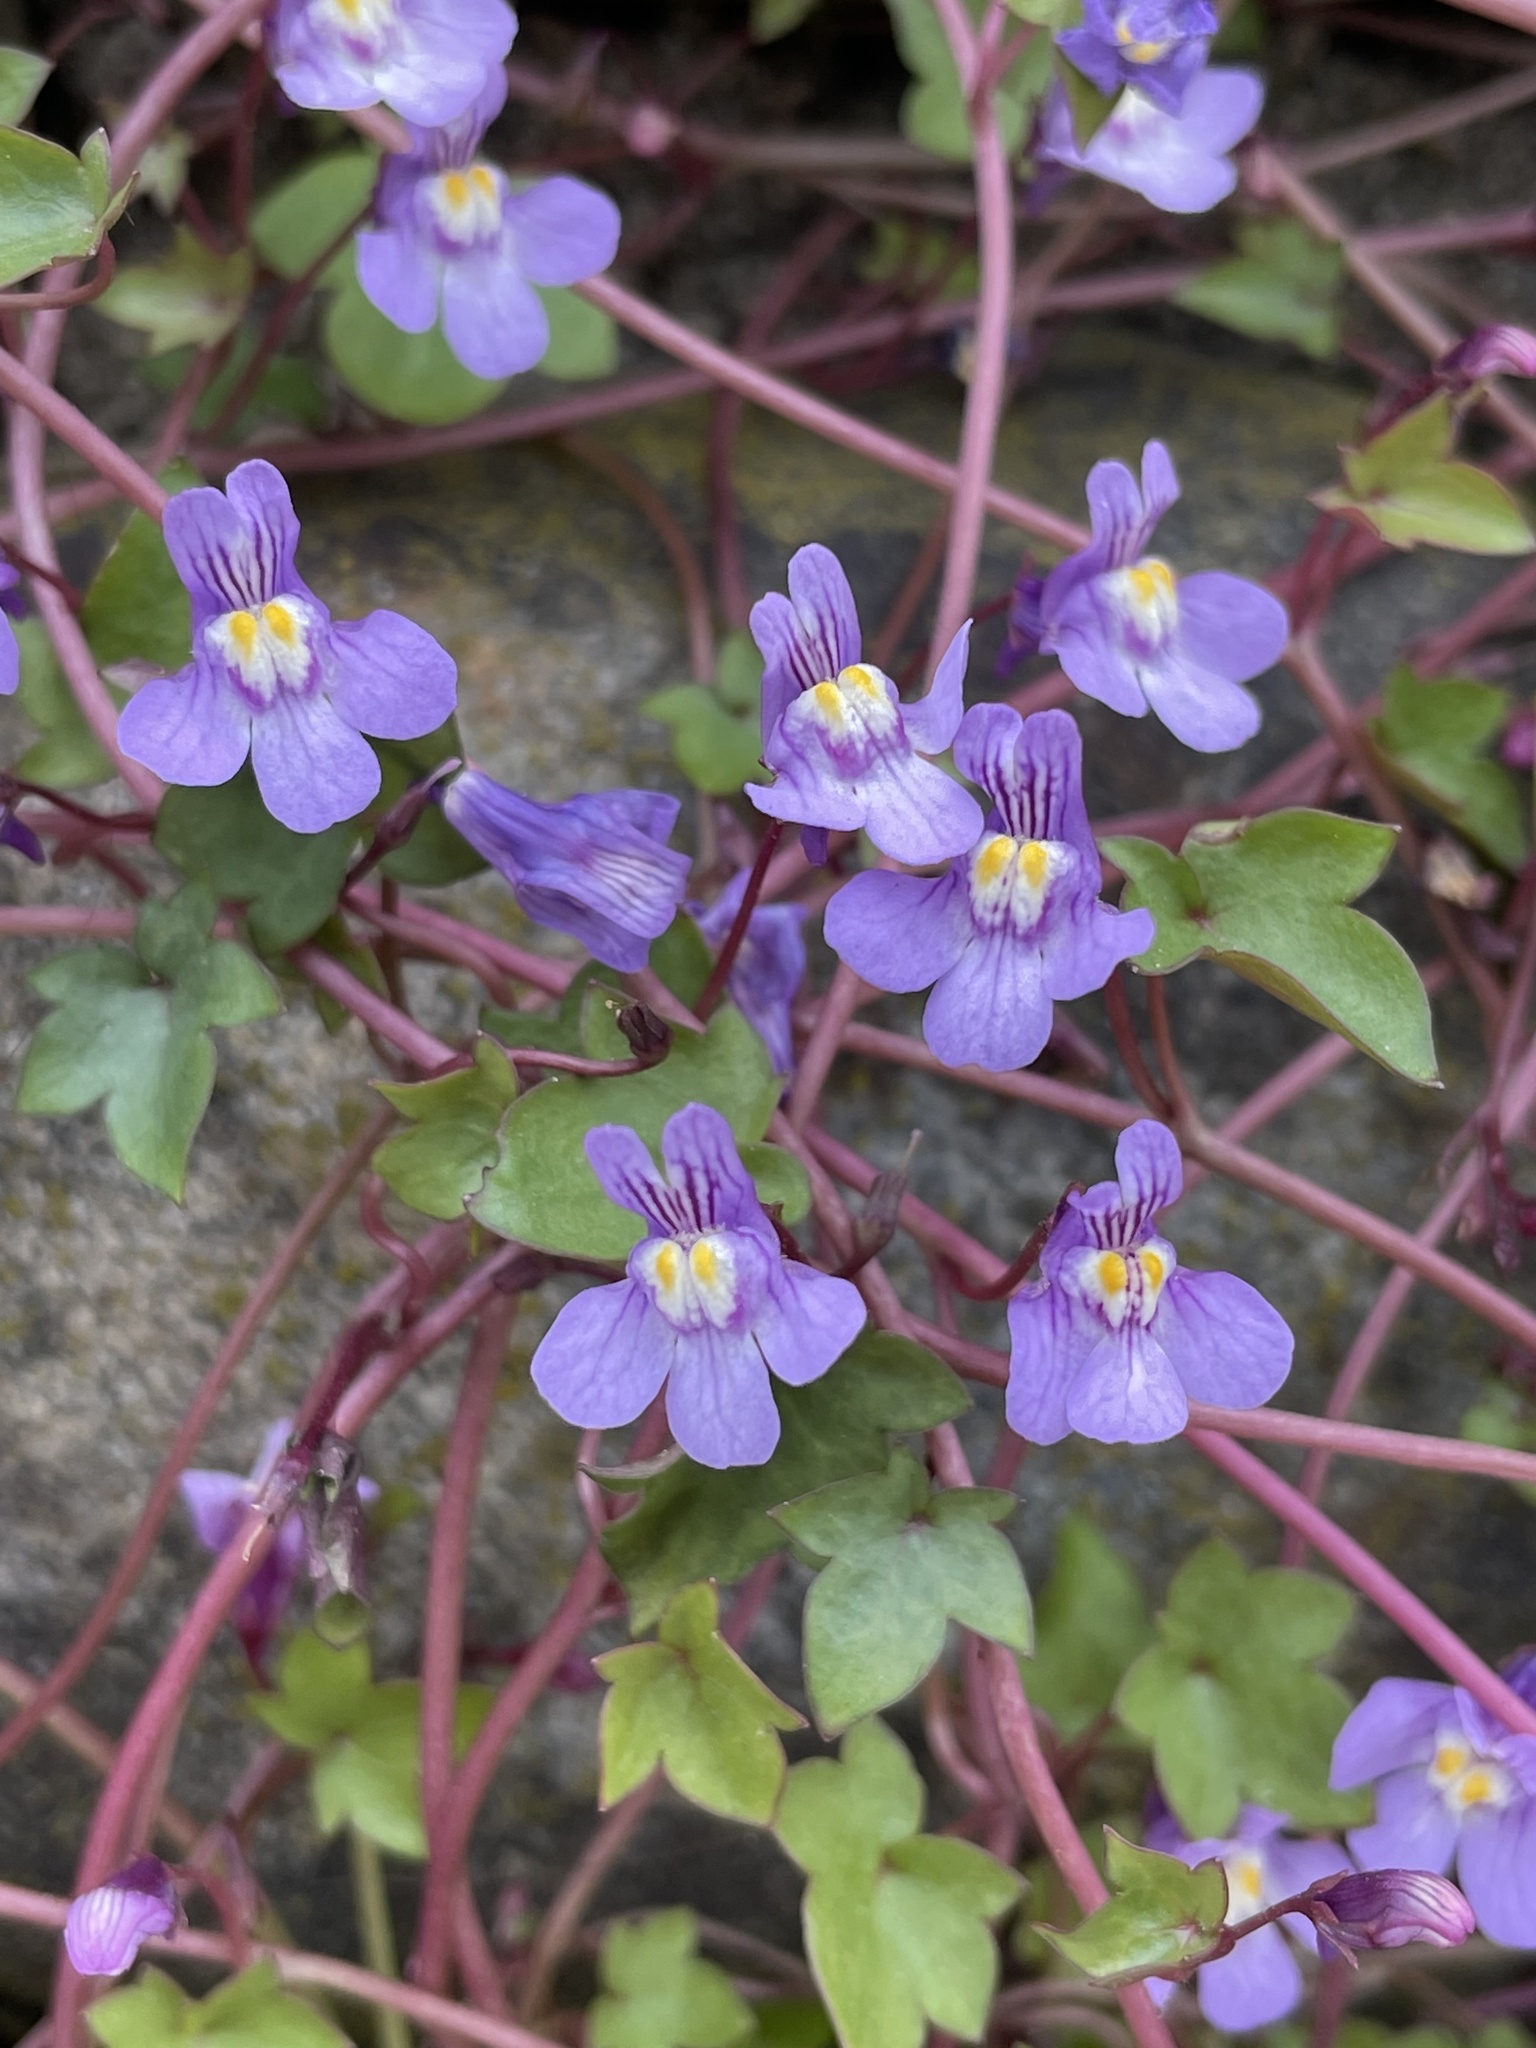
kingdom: Plantae
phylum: Tracheophyta
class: Magnoliopsida
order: Lamiales
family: Plantaginaceae
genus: Cymbalaria
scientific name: Cymbalaria muralis
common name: Ivy-leaved toadflax
